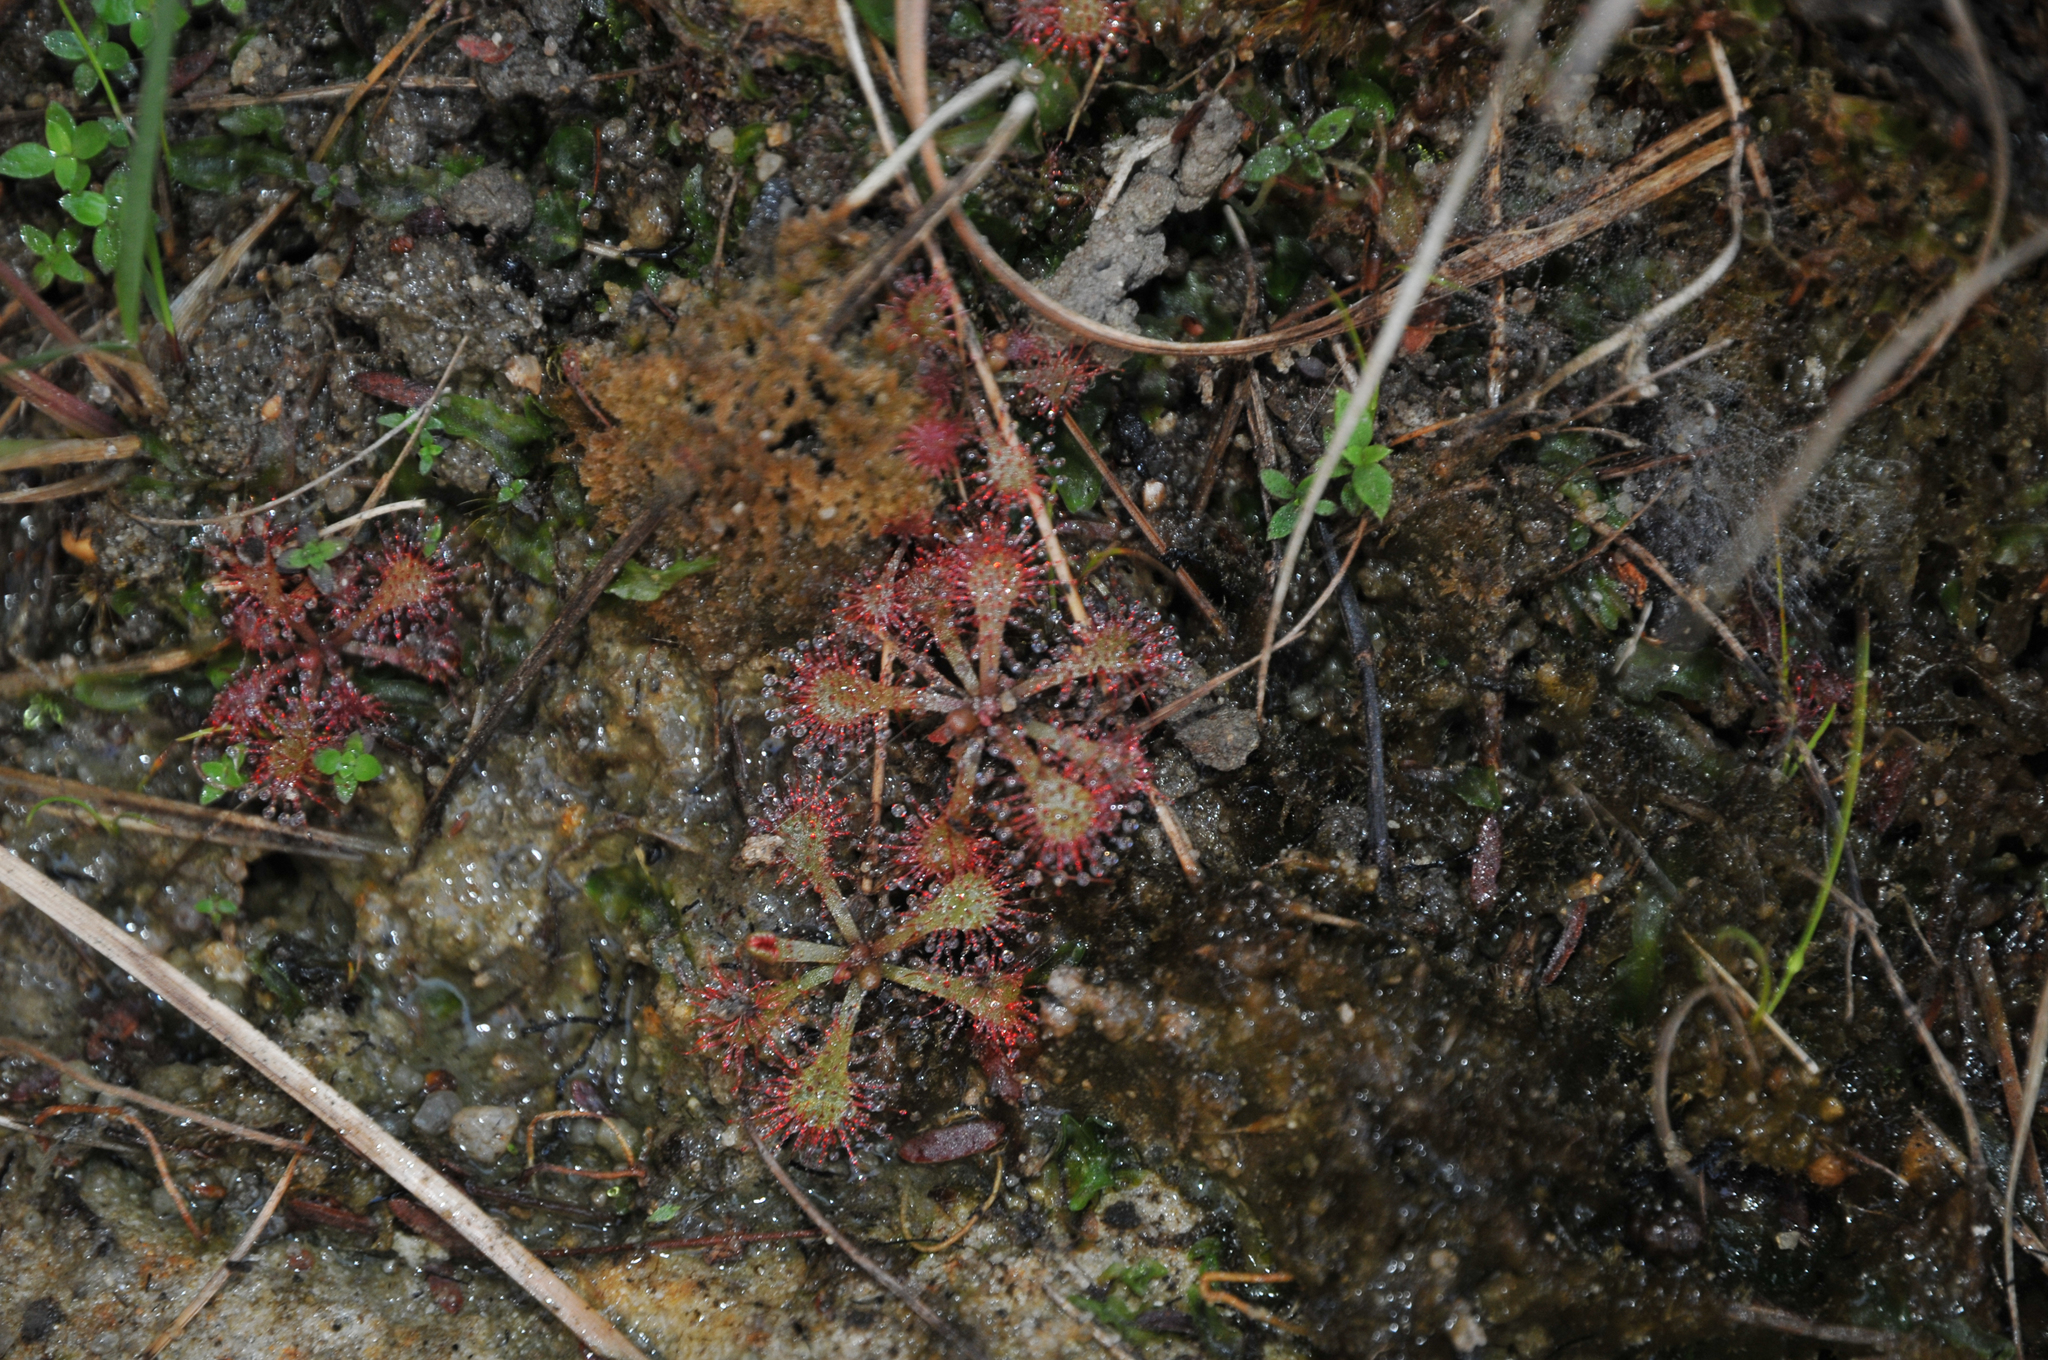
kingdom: Plantae
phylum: Tracheophyta
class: Magnoliopsida
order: Caryophyllales
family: Droseraceae
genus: Drosera
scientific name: Drosera natalensis
